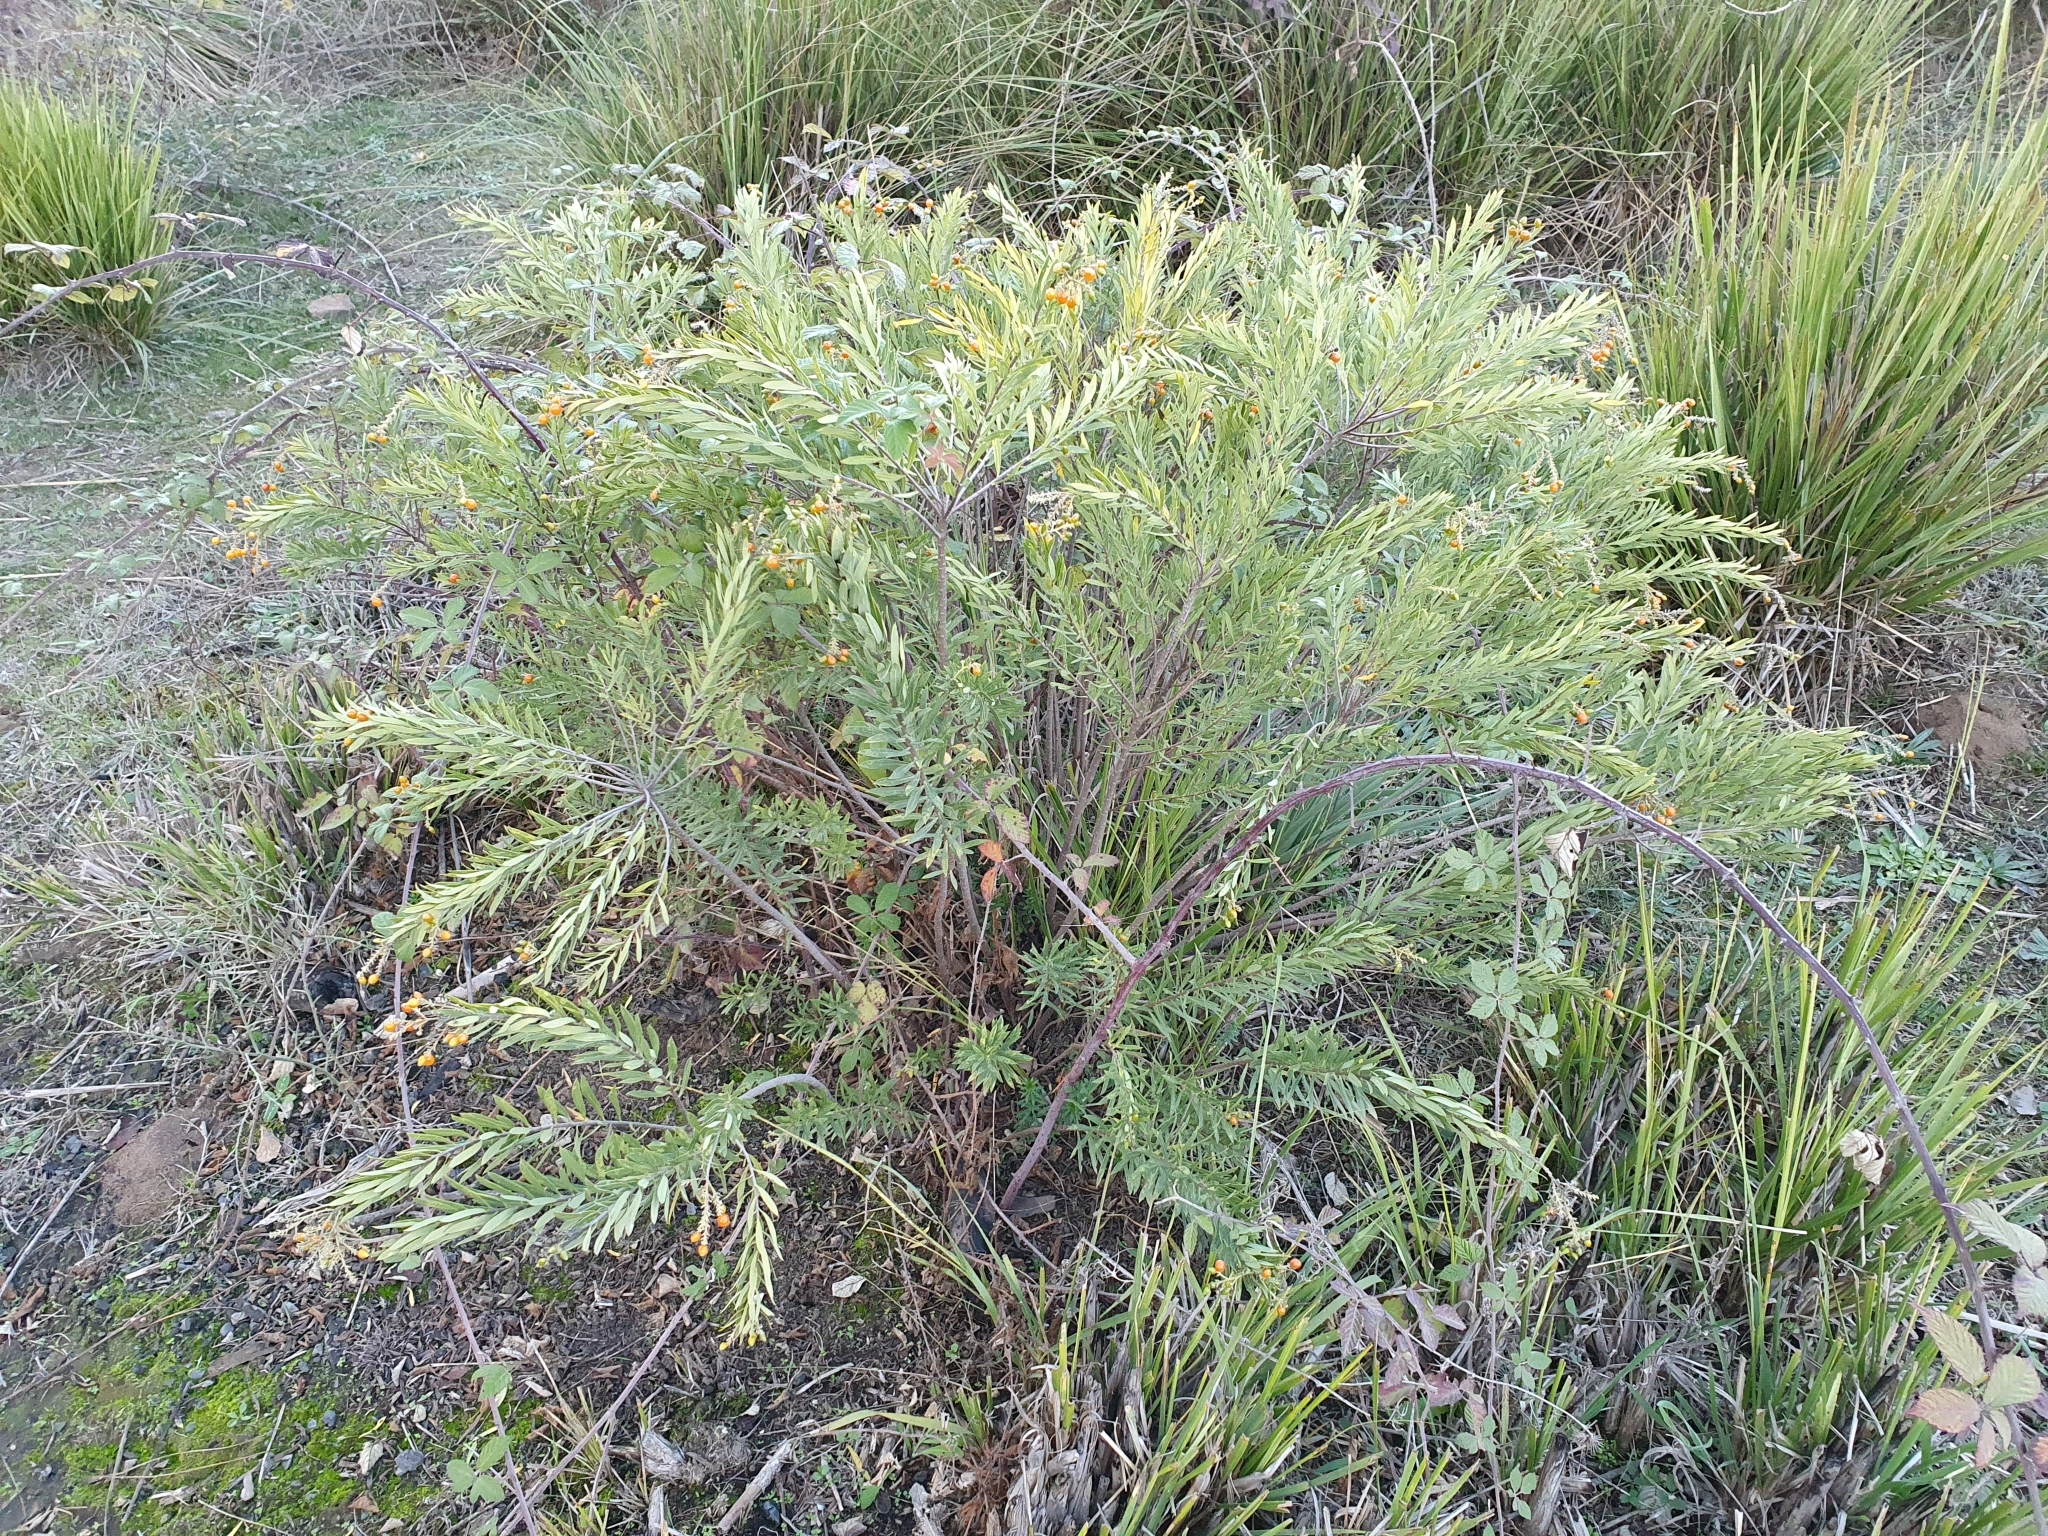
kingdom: Plantae
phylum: Tracheophyta
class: Magnoliopsida
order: Malvales
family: Thymelaeaceae
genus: Daphne
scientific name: Daphne gnidium
